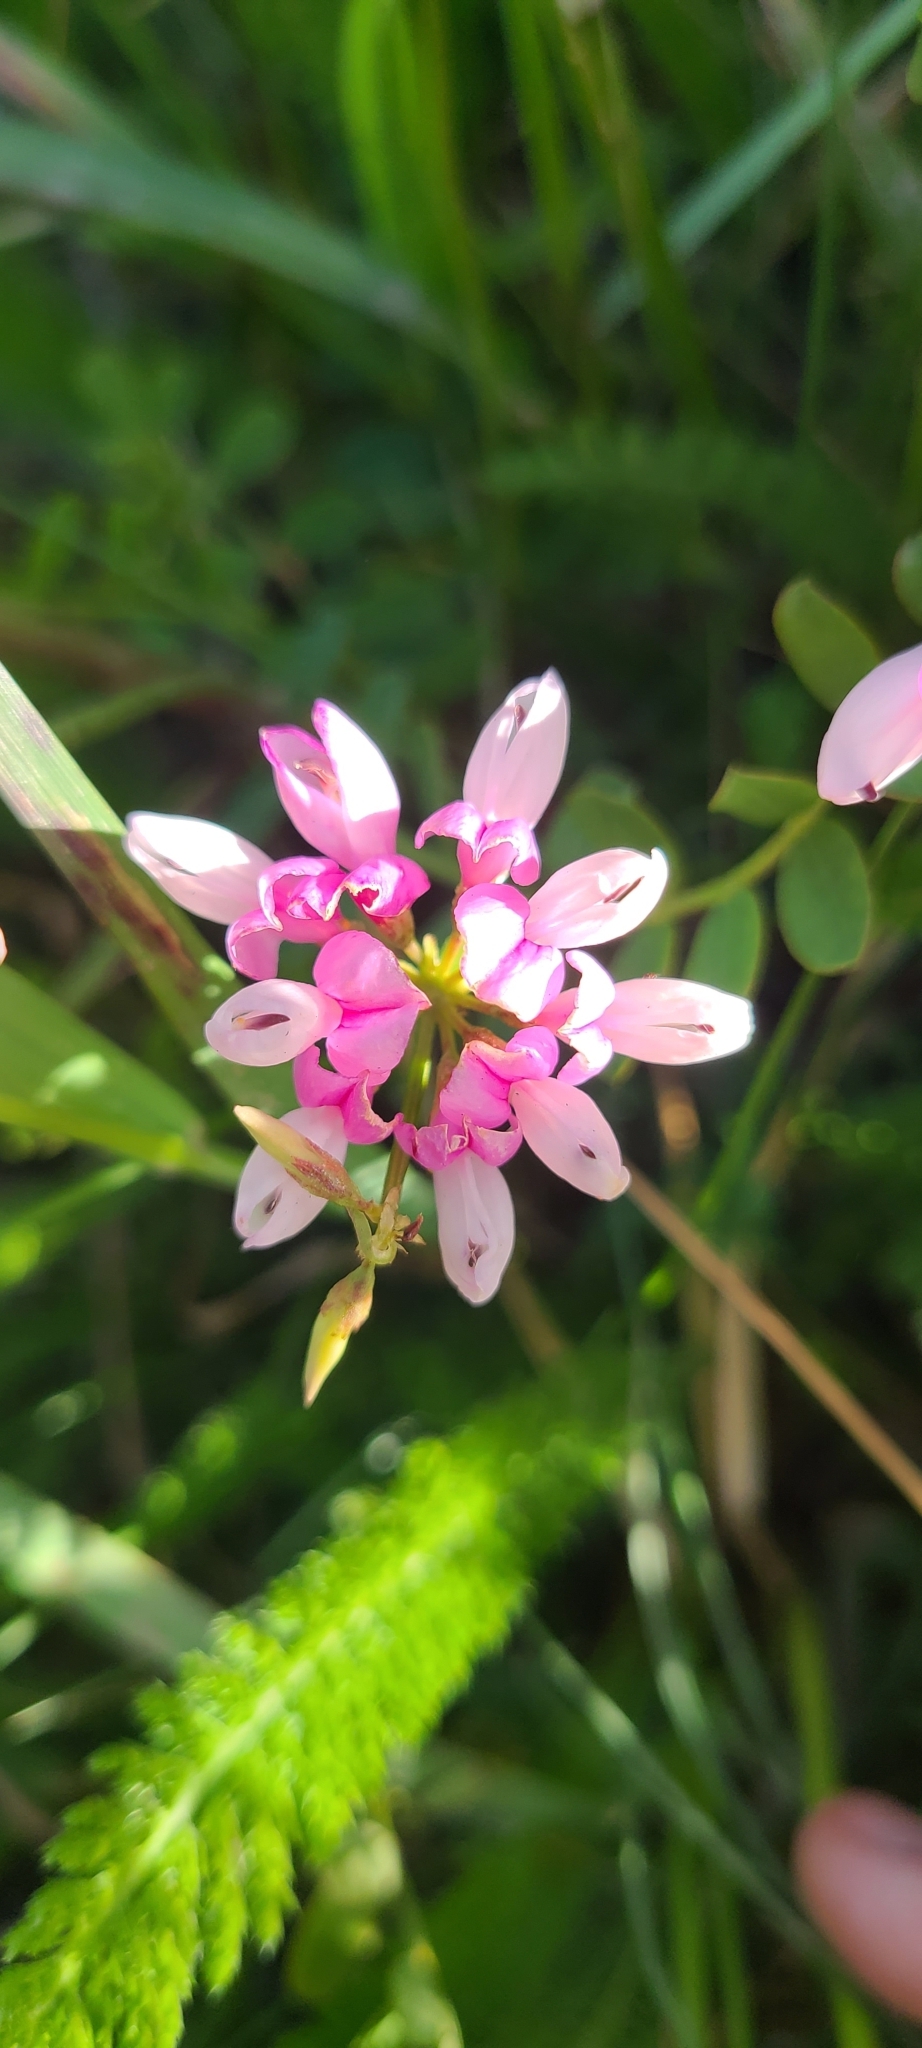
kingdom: Plantae
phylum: Tracheophyta
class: Magnoliopsida
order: Fabales
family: Fabaceae
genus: Coronilla
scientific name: Coronilla varia
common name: Crownvetch
